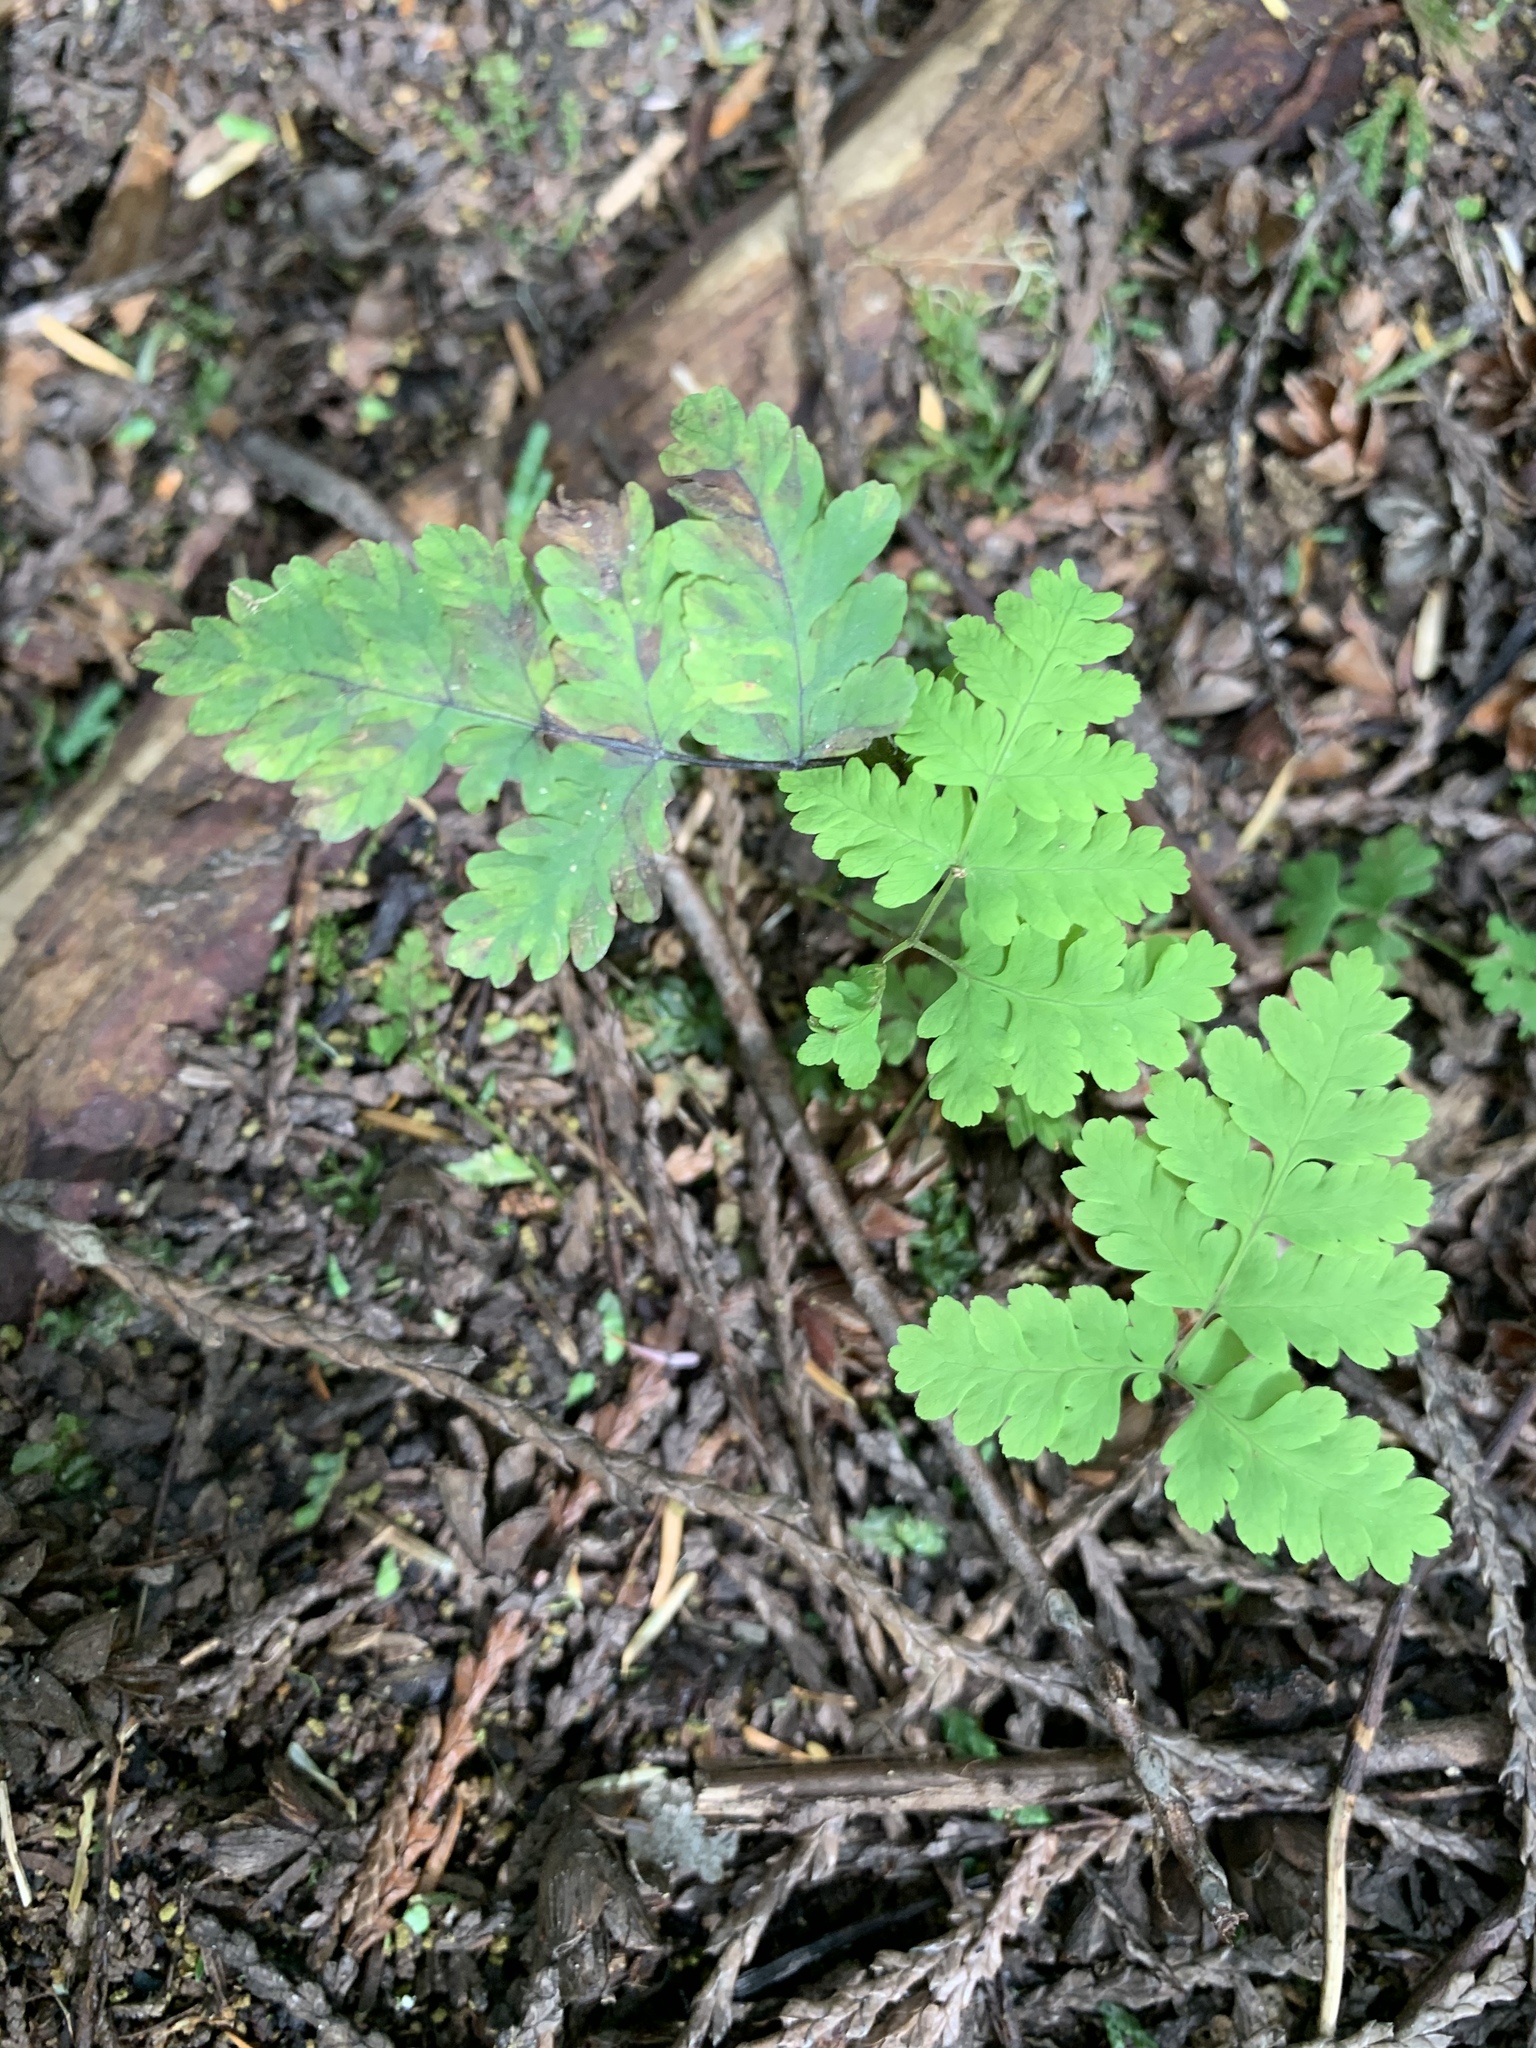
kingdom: Plantae
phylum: Tracheophyta
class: Polypodiopsida
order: Polypodiales
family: Cystopteridaceae
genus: Gymnocarpium
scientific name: Gymnocarpium dryopteris
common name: Oak fern
